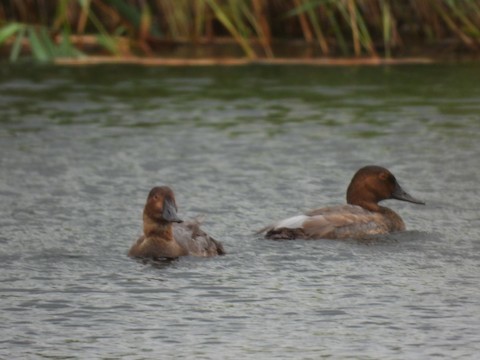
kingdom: Animalia
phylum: Chordata
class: Aves
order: Anseriformes
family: Anatidae
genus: Aythya
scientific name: Aythya ferina
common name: Common pochard
